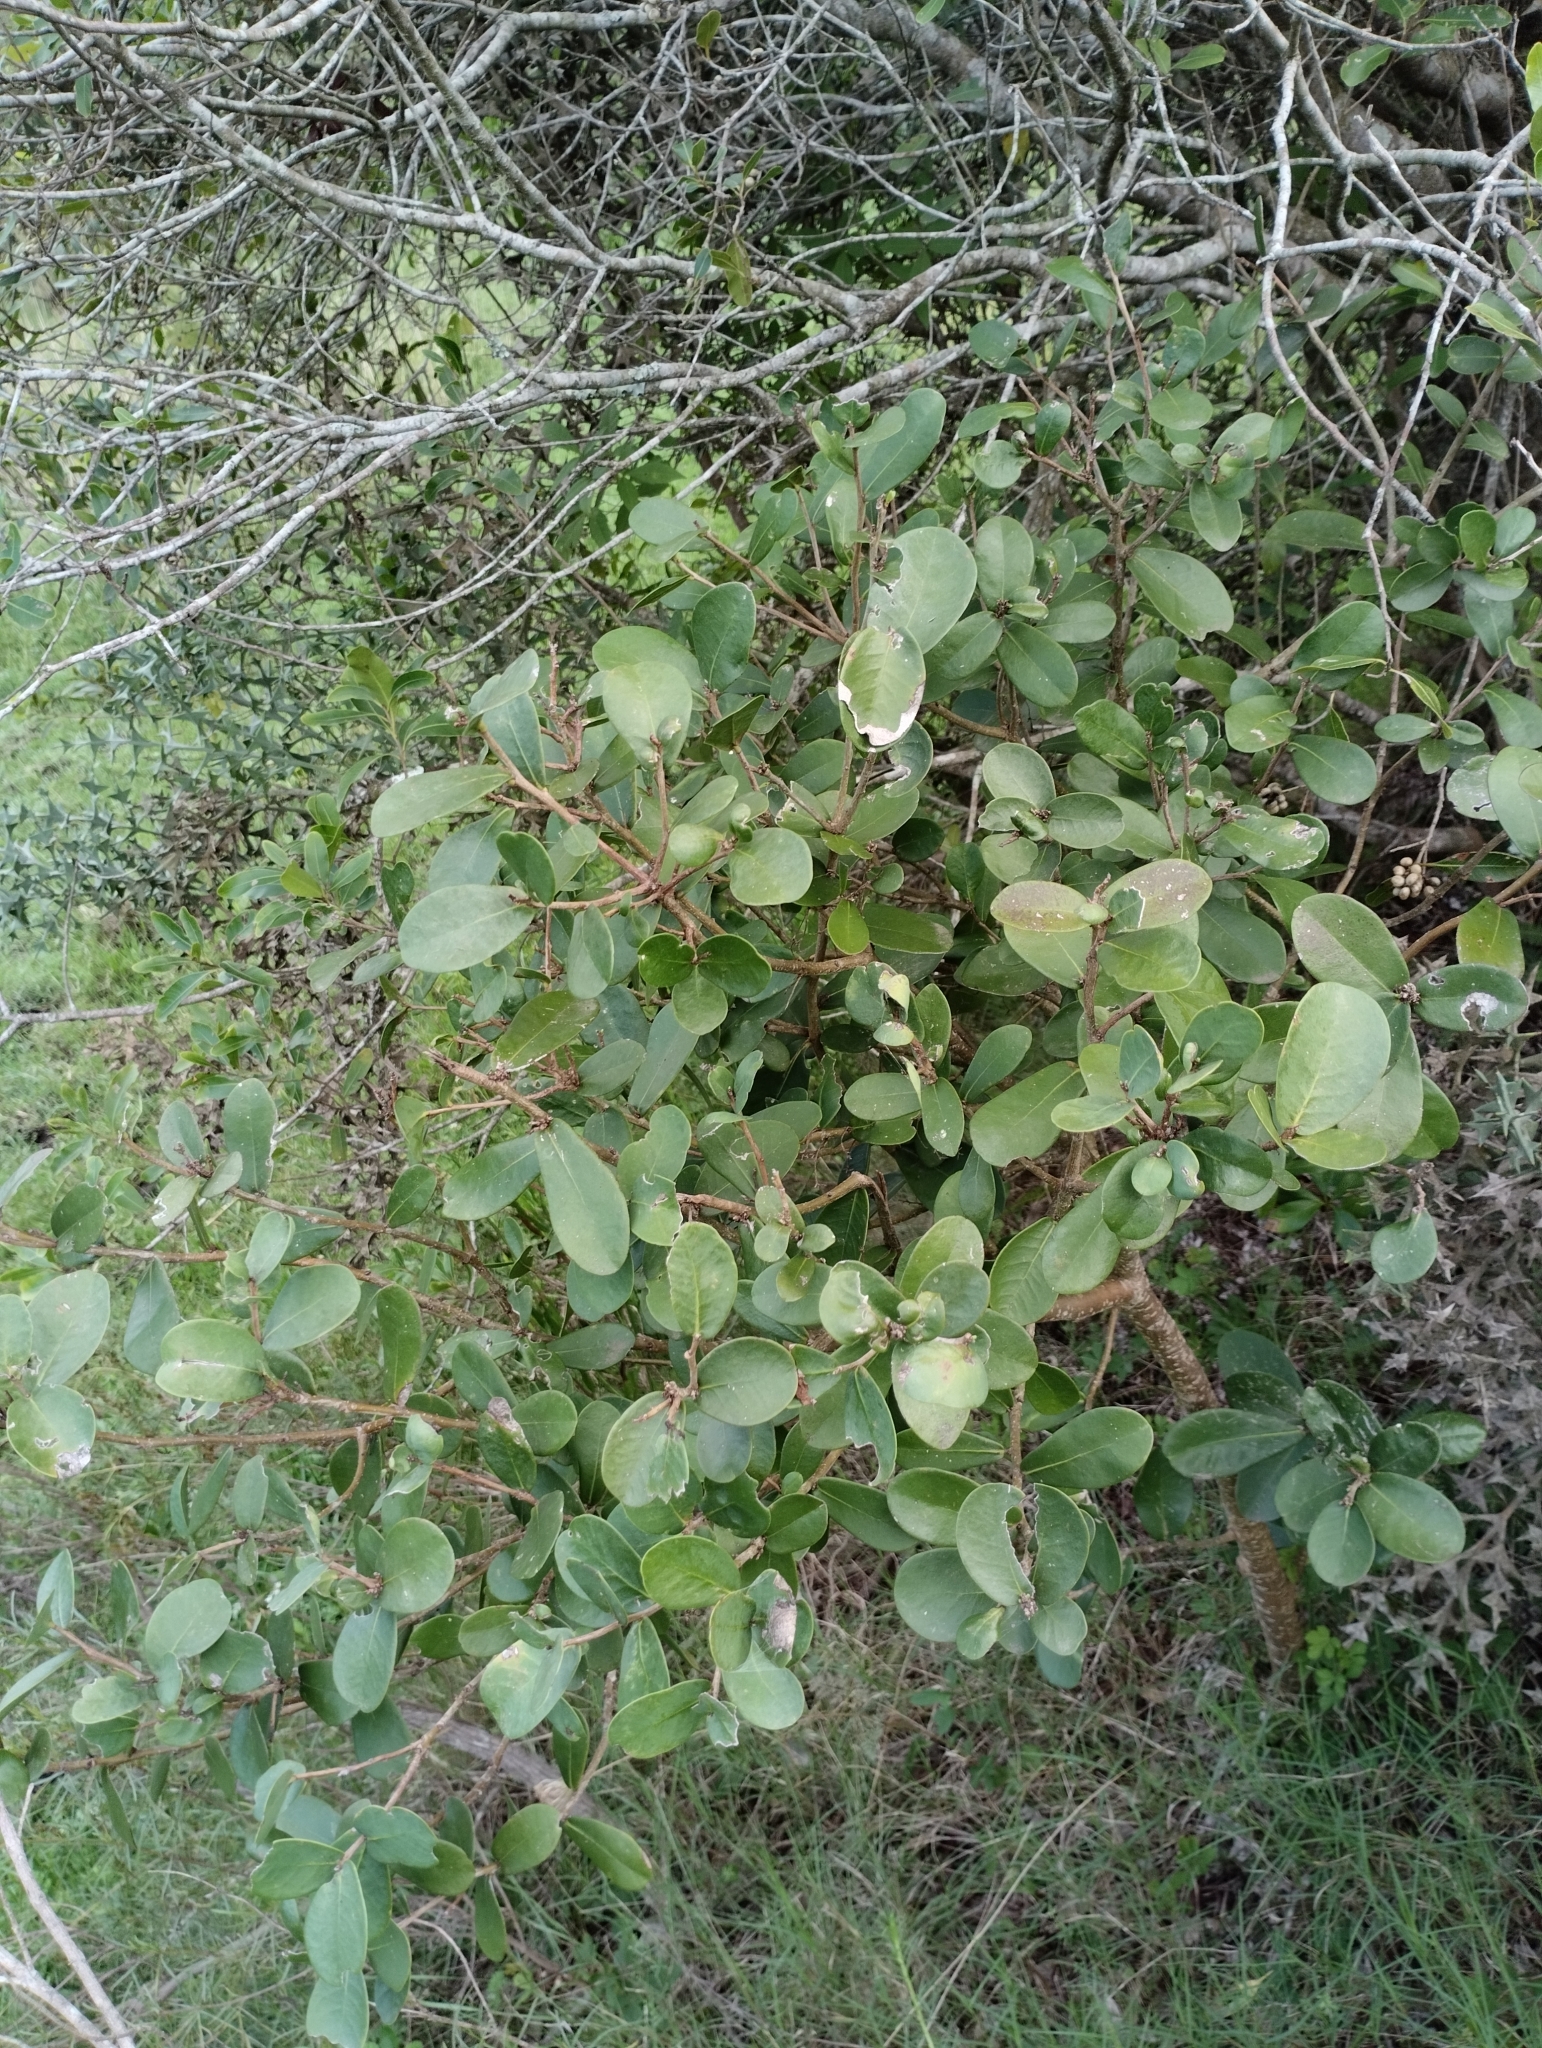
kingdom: Plantae
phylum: Tracheophyta
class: Magnoliopsida
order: Malvales
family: Thymelaeaceae
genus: Daphnopsis
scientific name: Daphnopsis racemosa
